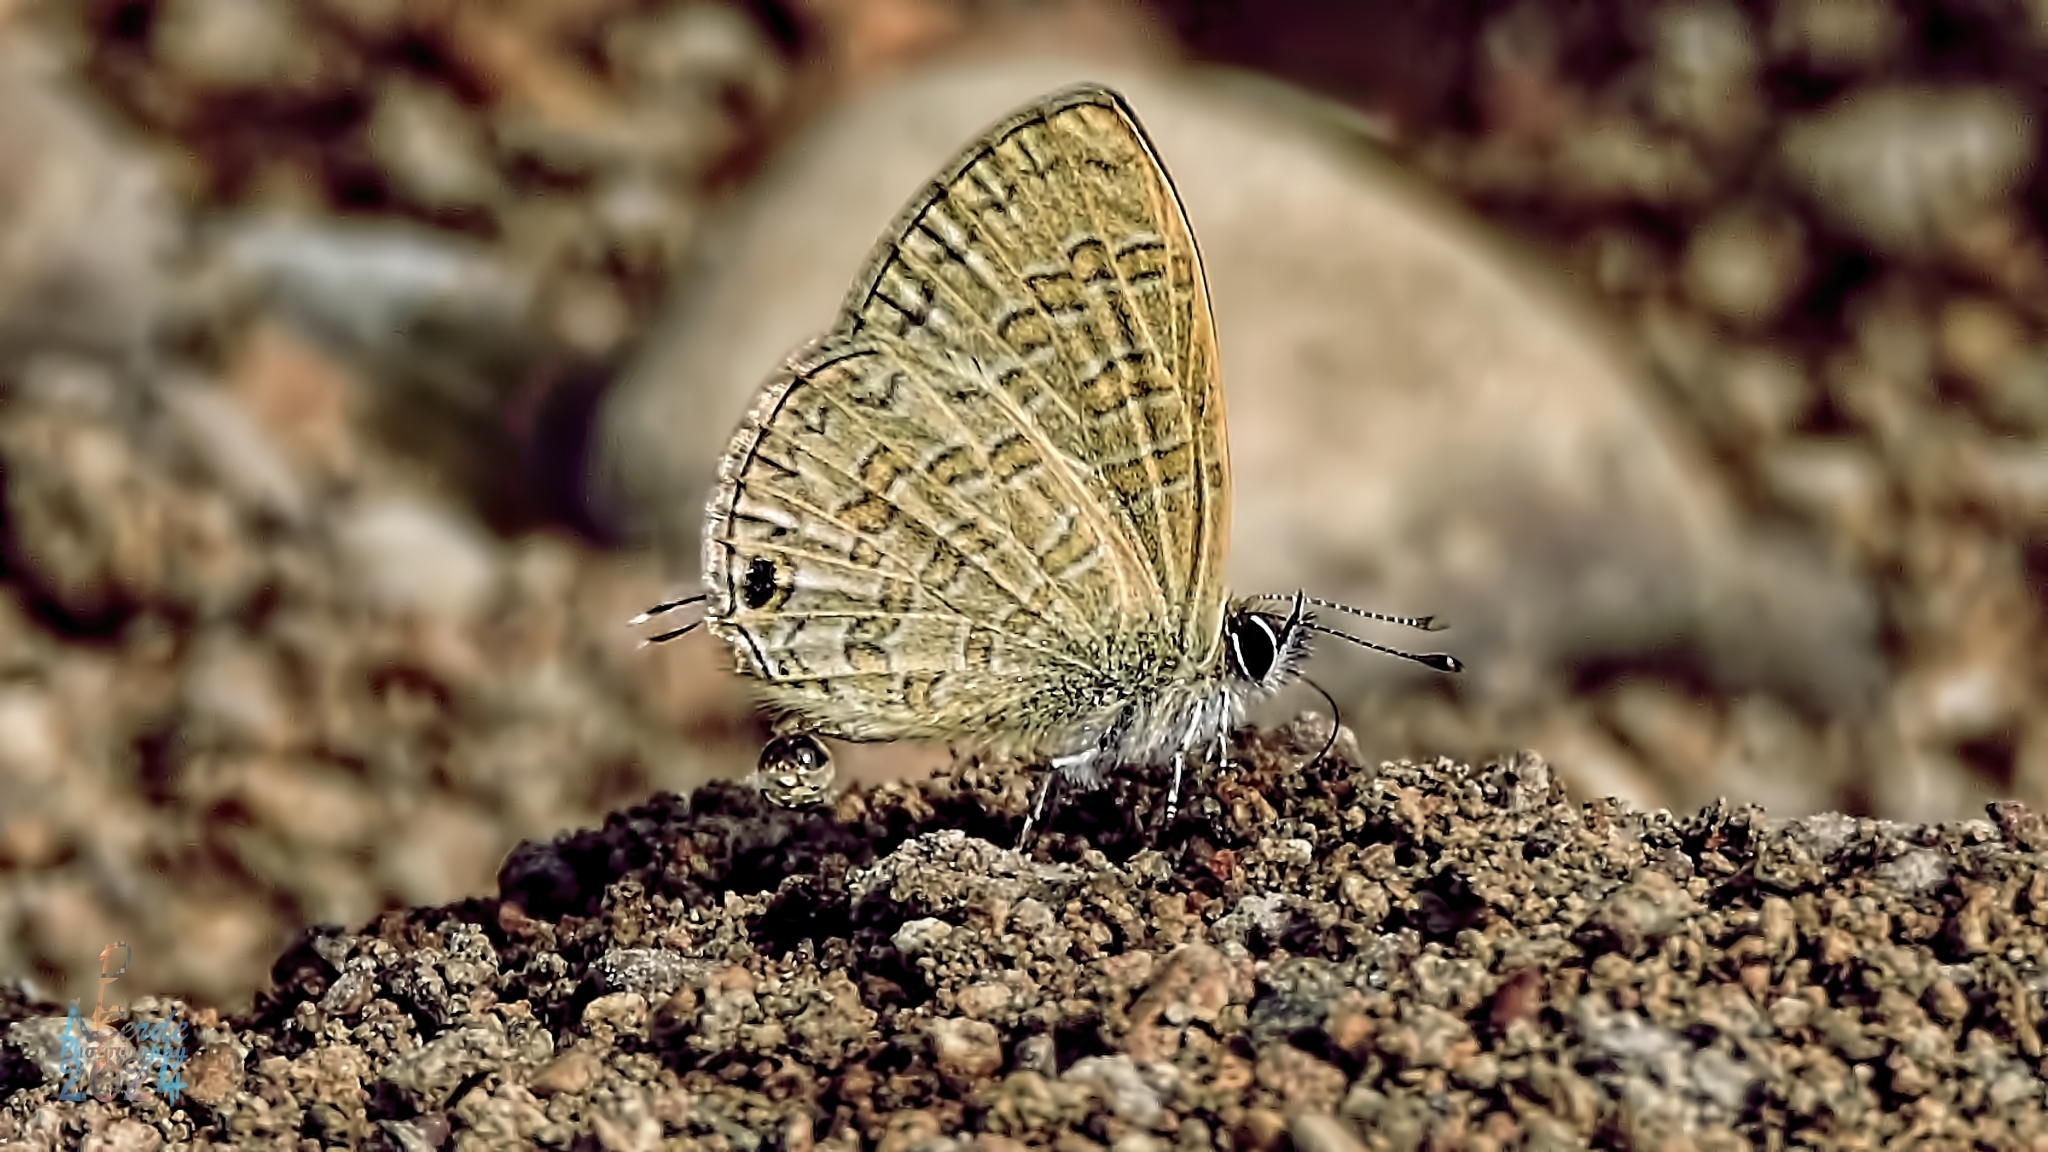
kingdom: Animalia
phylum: Arthropoda
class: Insecta
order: Lepidoptera
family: Lycaenidae
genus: Prosotas
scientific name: Prosotas nora
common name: Common line blue
